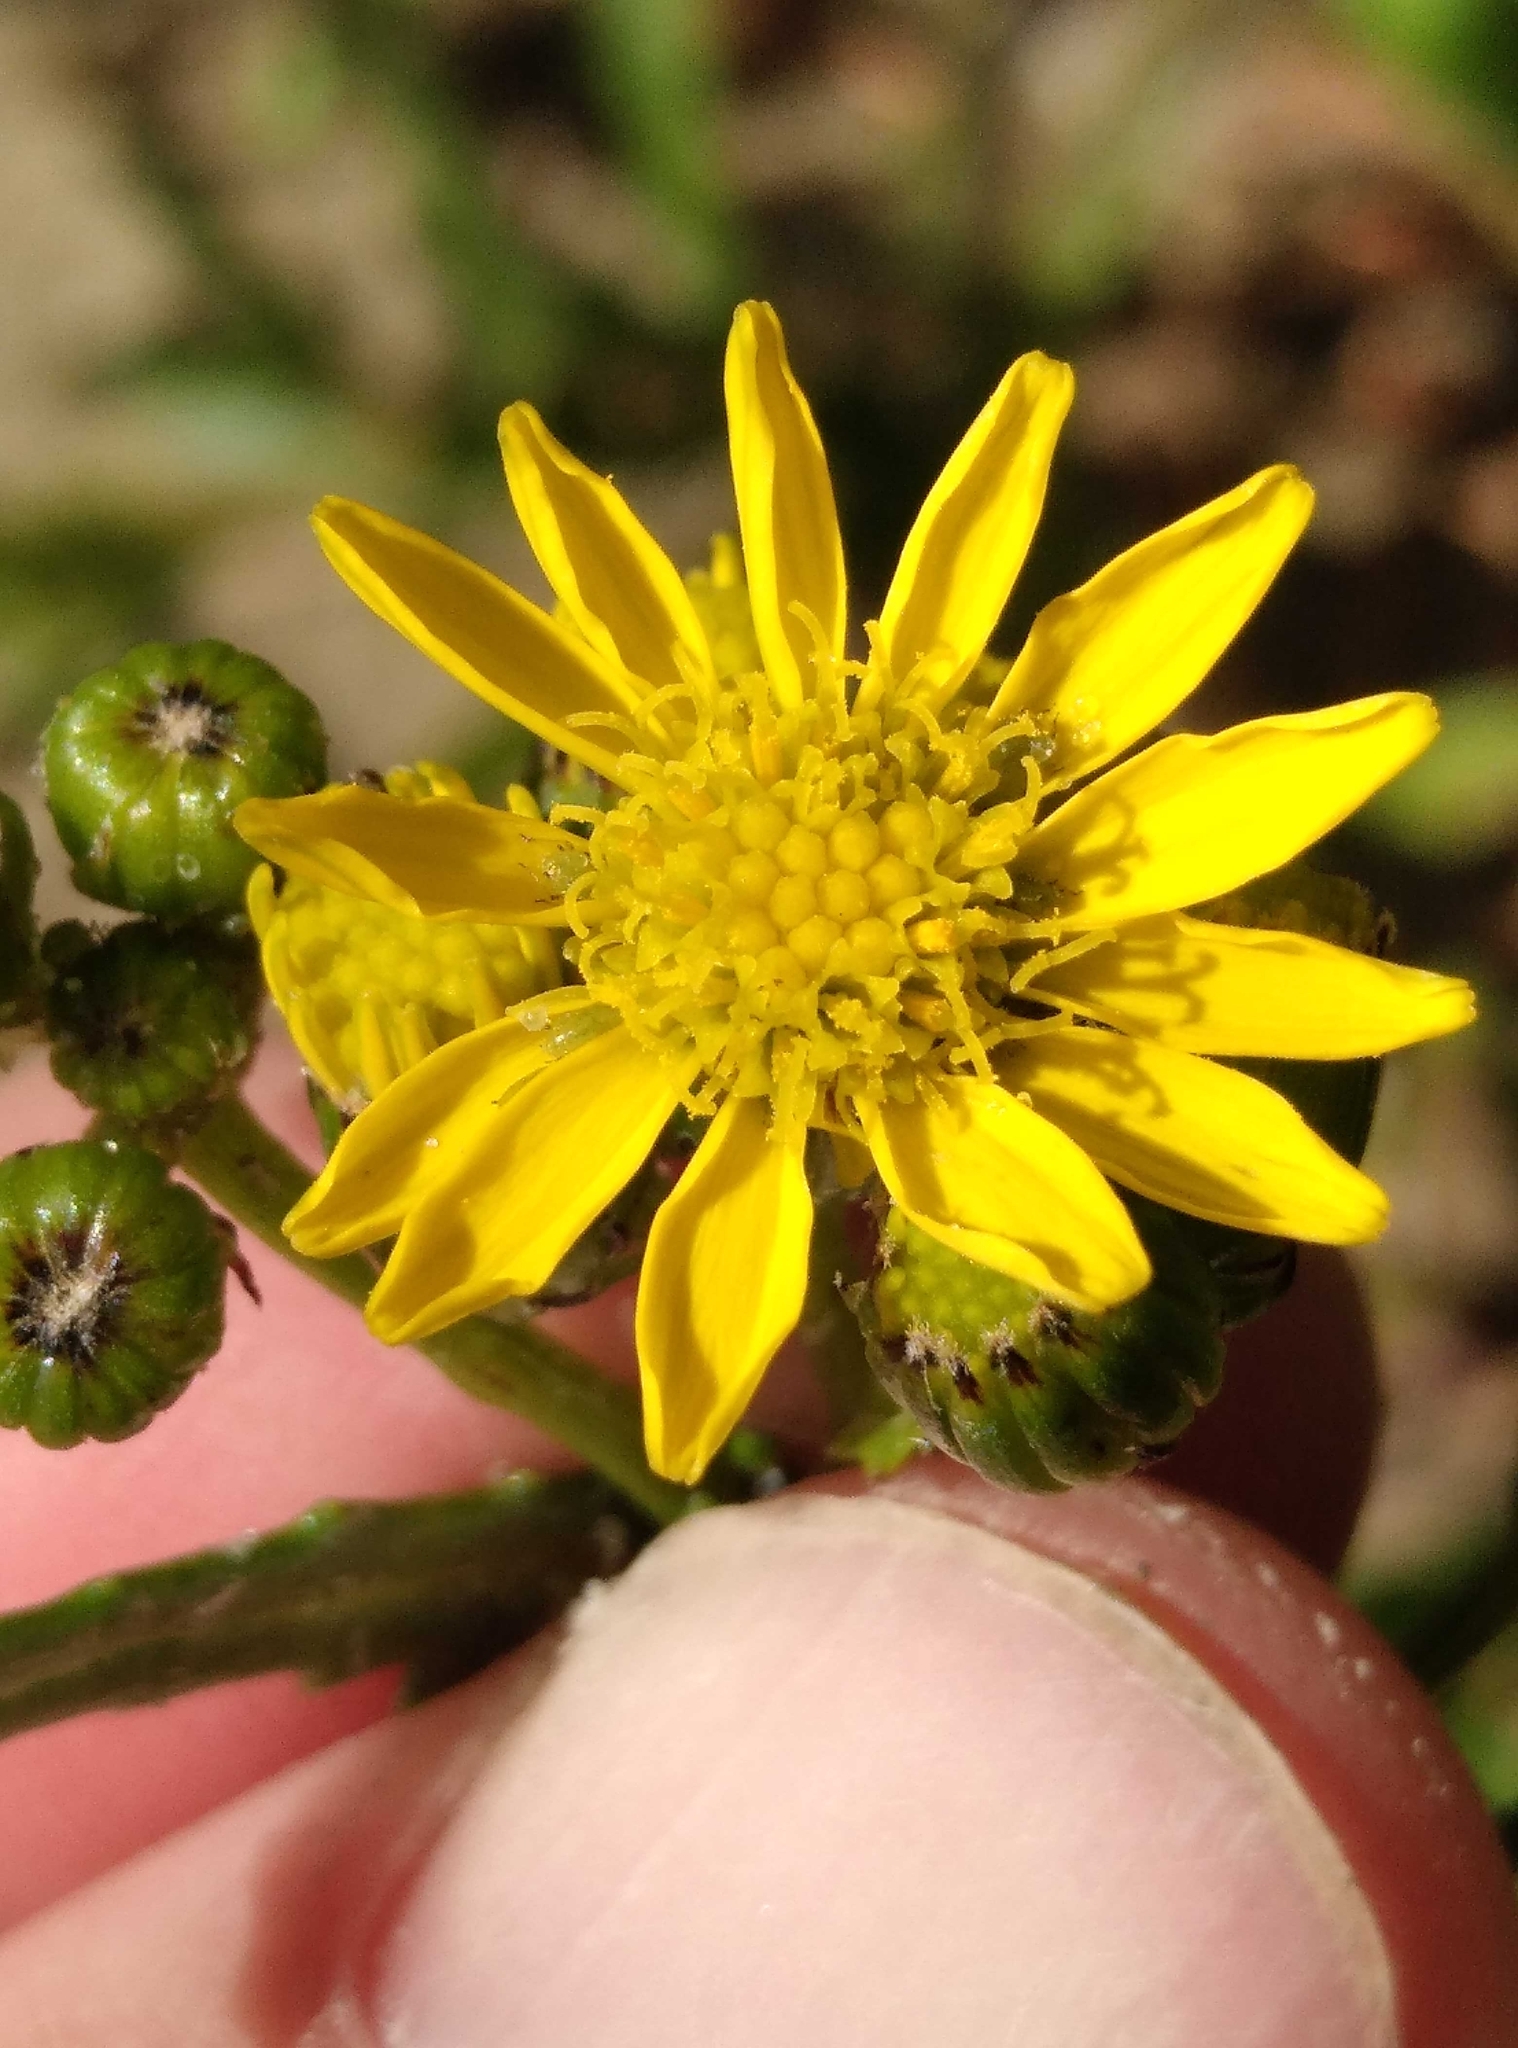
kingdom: Plantae
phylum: Tracheophyta
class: Magnoliopsida
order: Asterales
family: Asteraceae
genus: Senecio
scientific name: Senecio matatini
